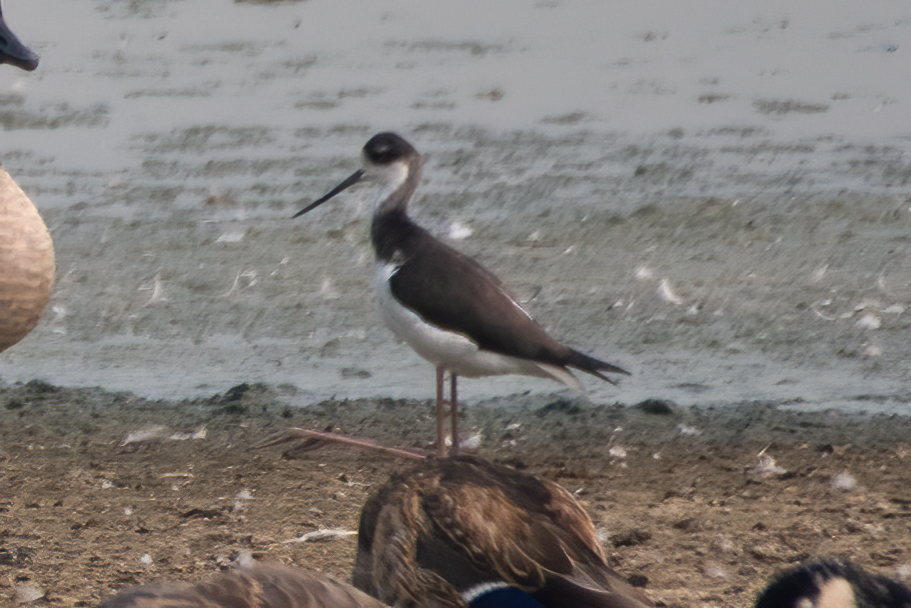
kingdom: Animalia
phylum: Chordata
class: Aves
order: Charadriiformes
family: Recurvirostridae
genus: Himantopus
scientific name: Himantopus mexicanus
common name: Black-necked stilt
